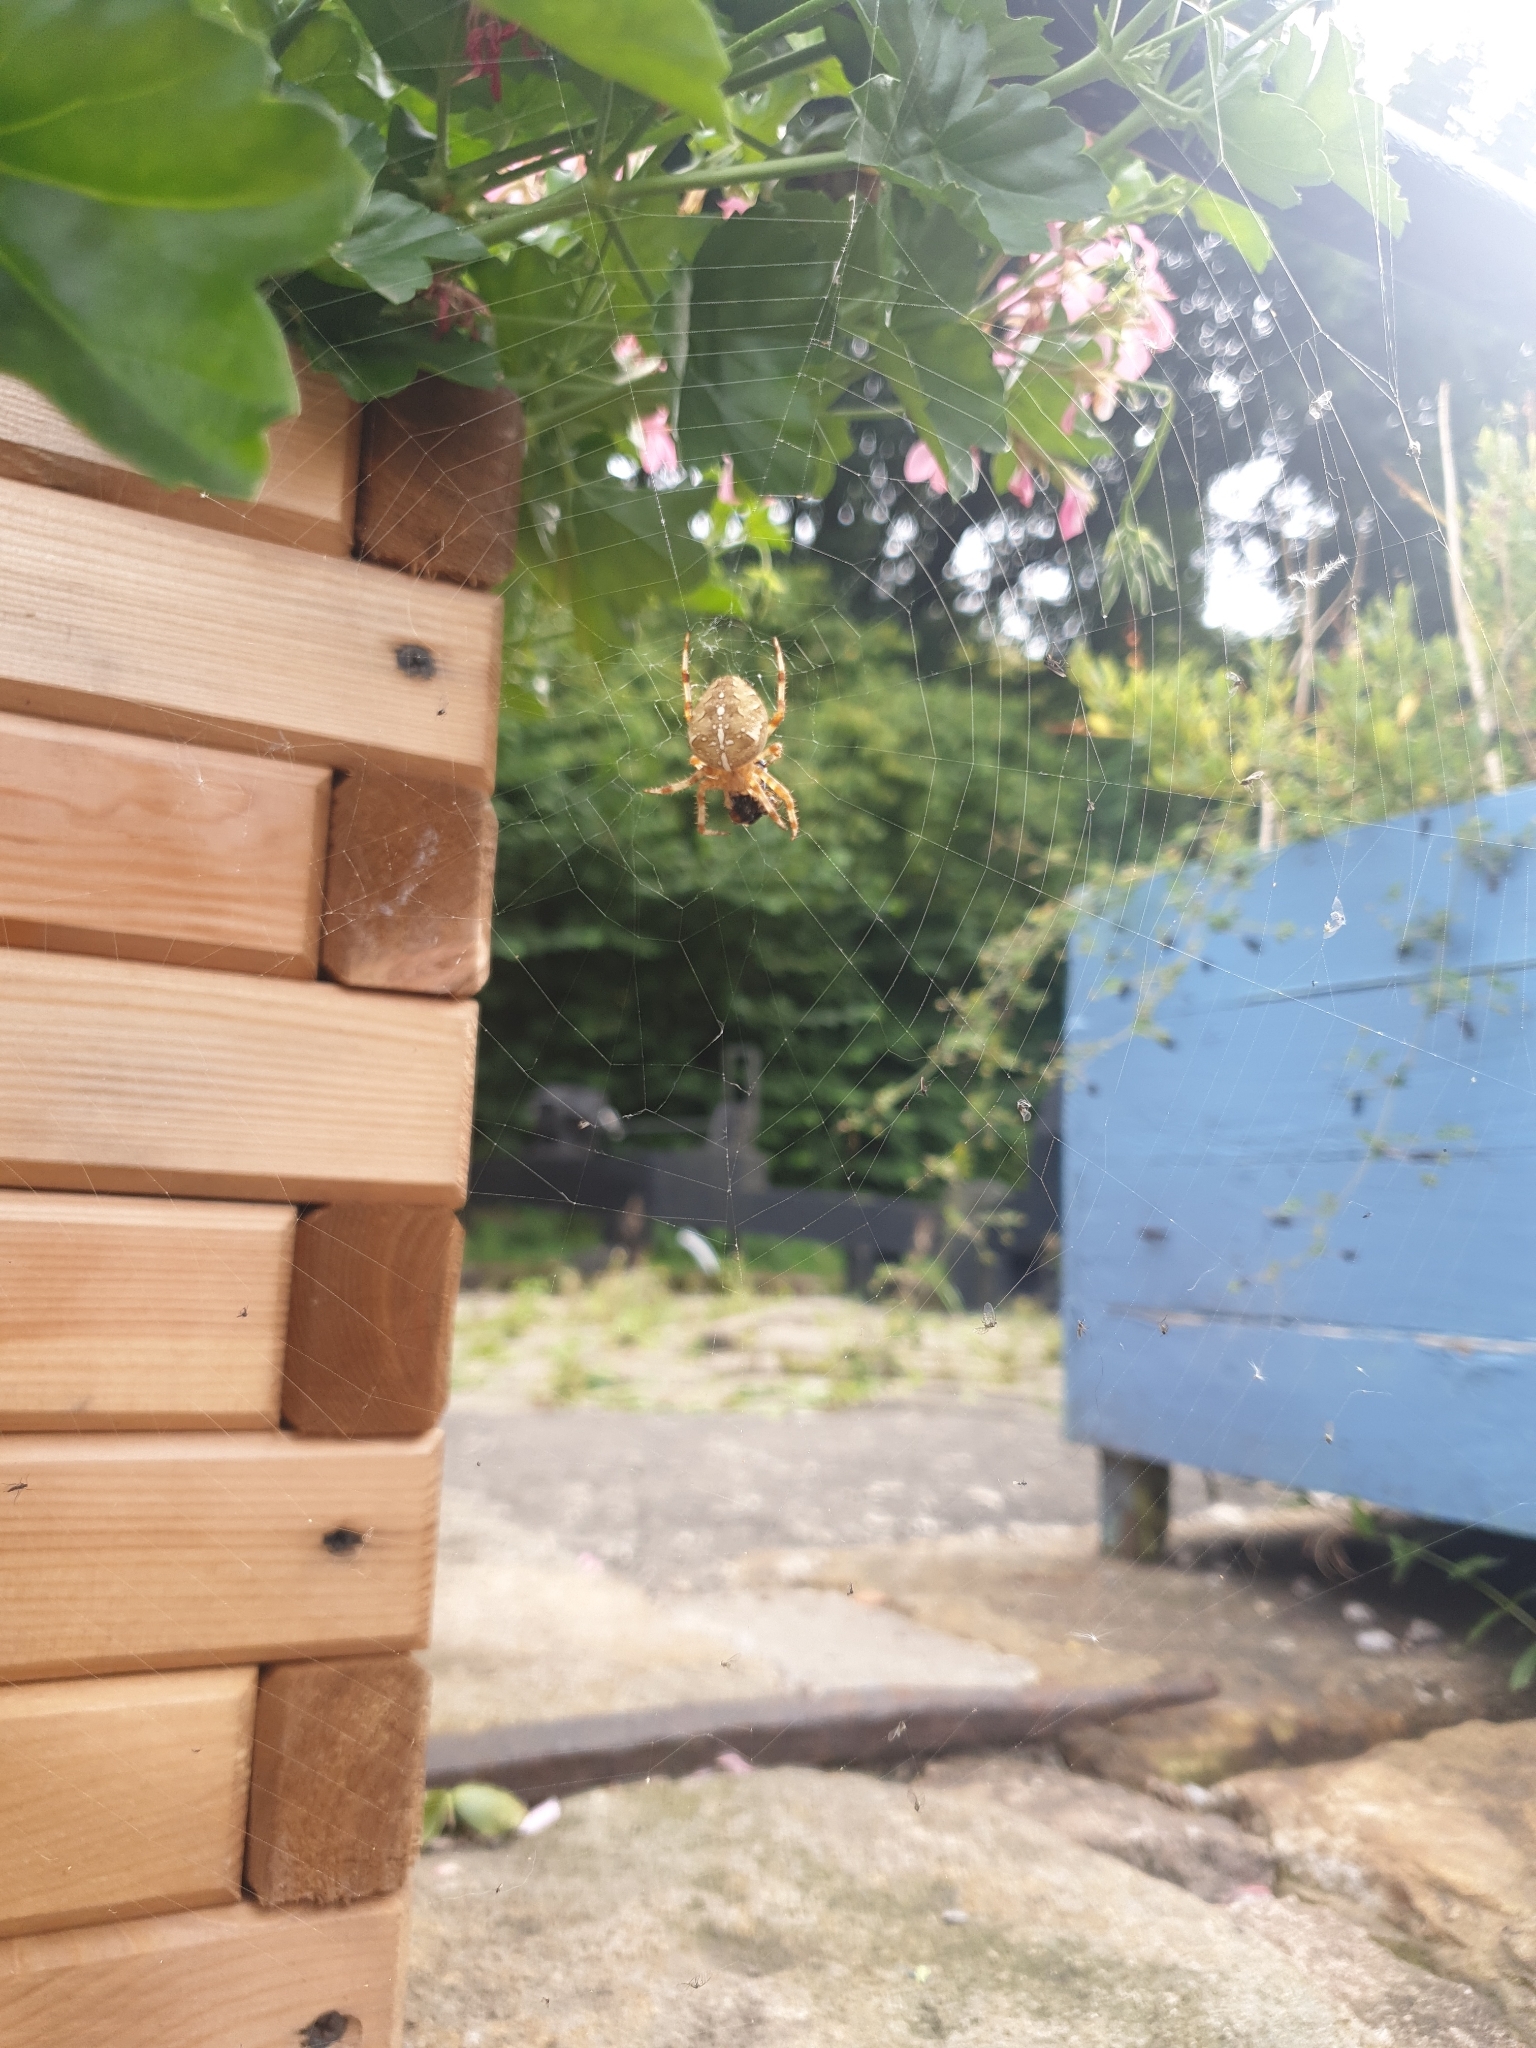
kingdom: Animalia
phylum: Arthropoda
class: Arachnida
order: Araneae
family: Araneidae
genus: Araneus
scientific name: Araneus diadematus
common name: Cross orbweaver
